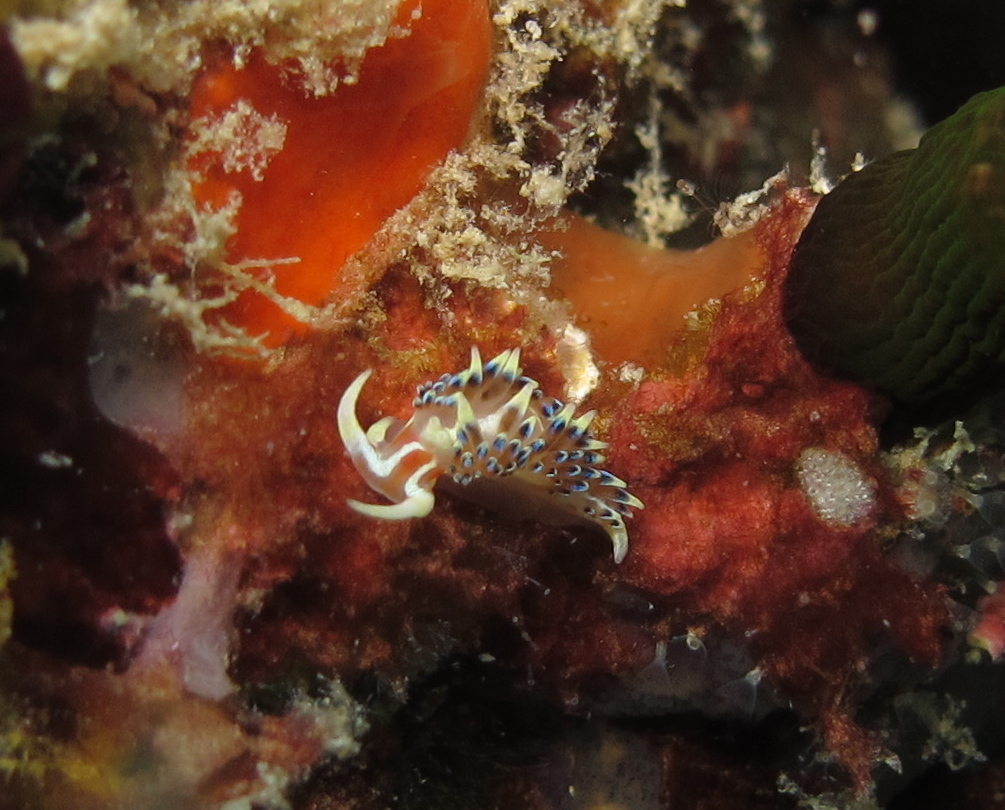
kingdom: Animalia
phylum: Mollusca
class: Gastropoda
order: Nudibranchia
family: Facelinidae
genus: Caloria
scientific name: Caloria indica
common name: Sea slug
